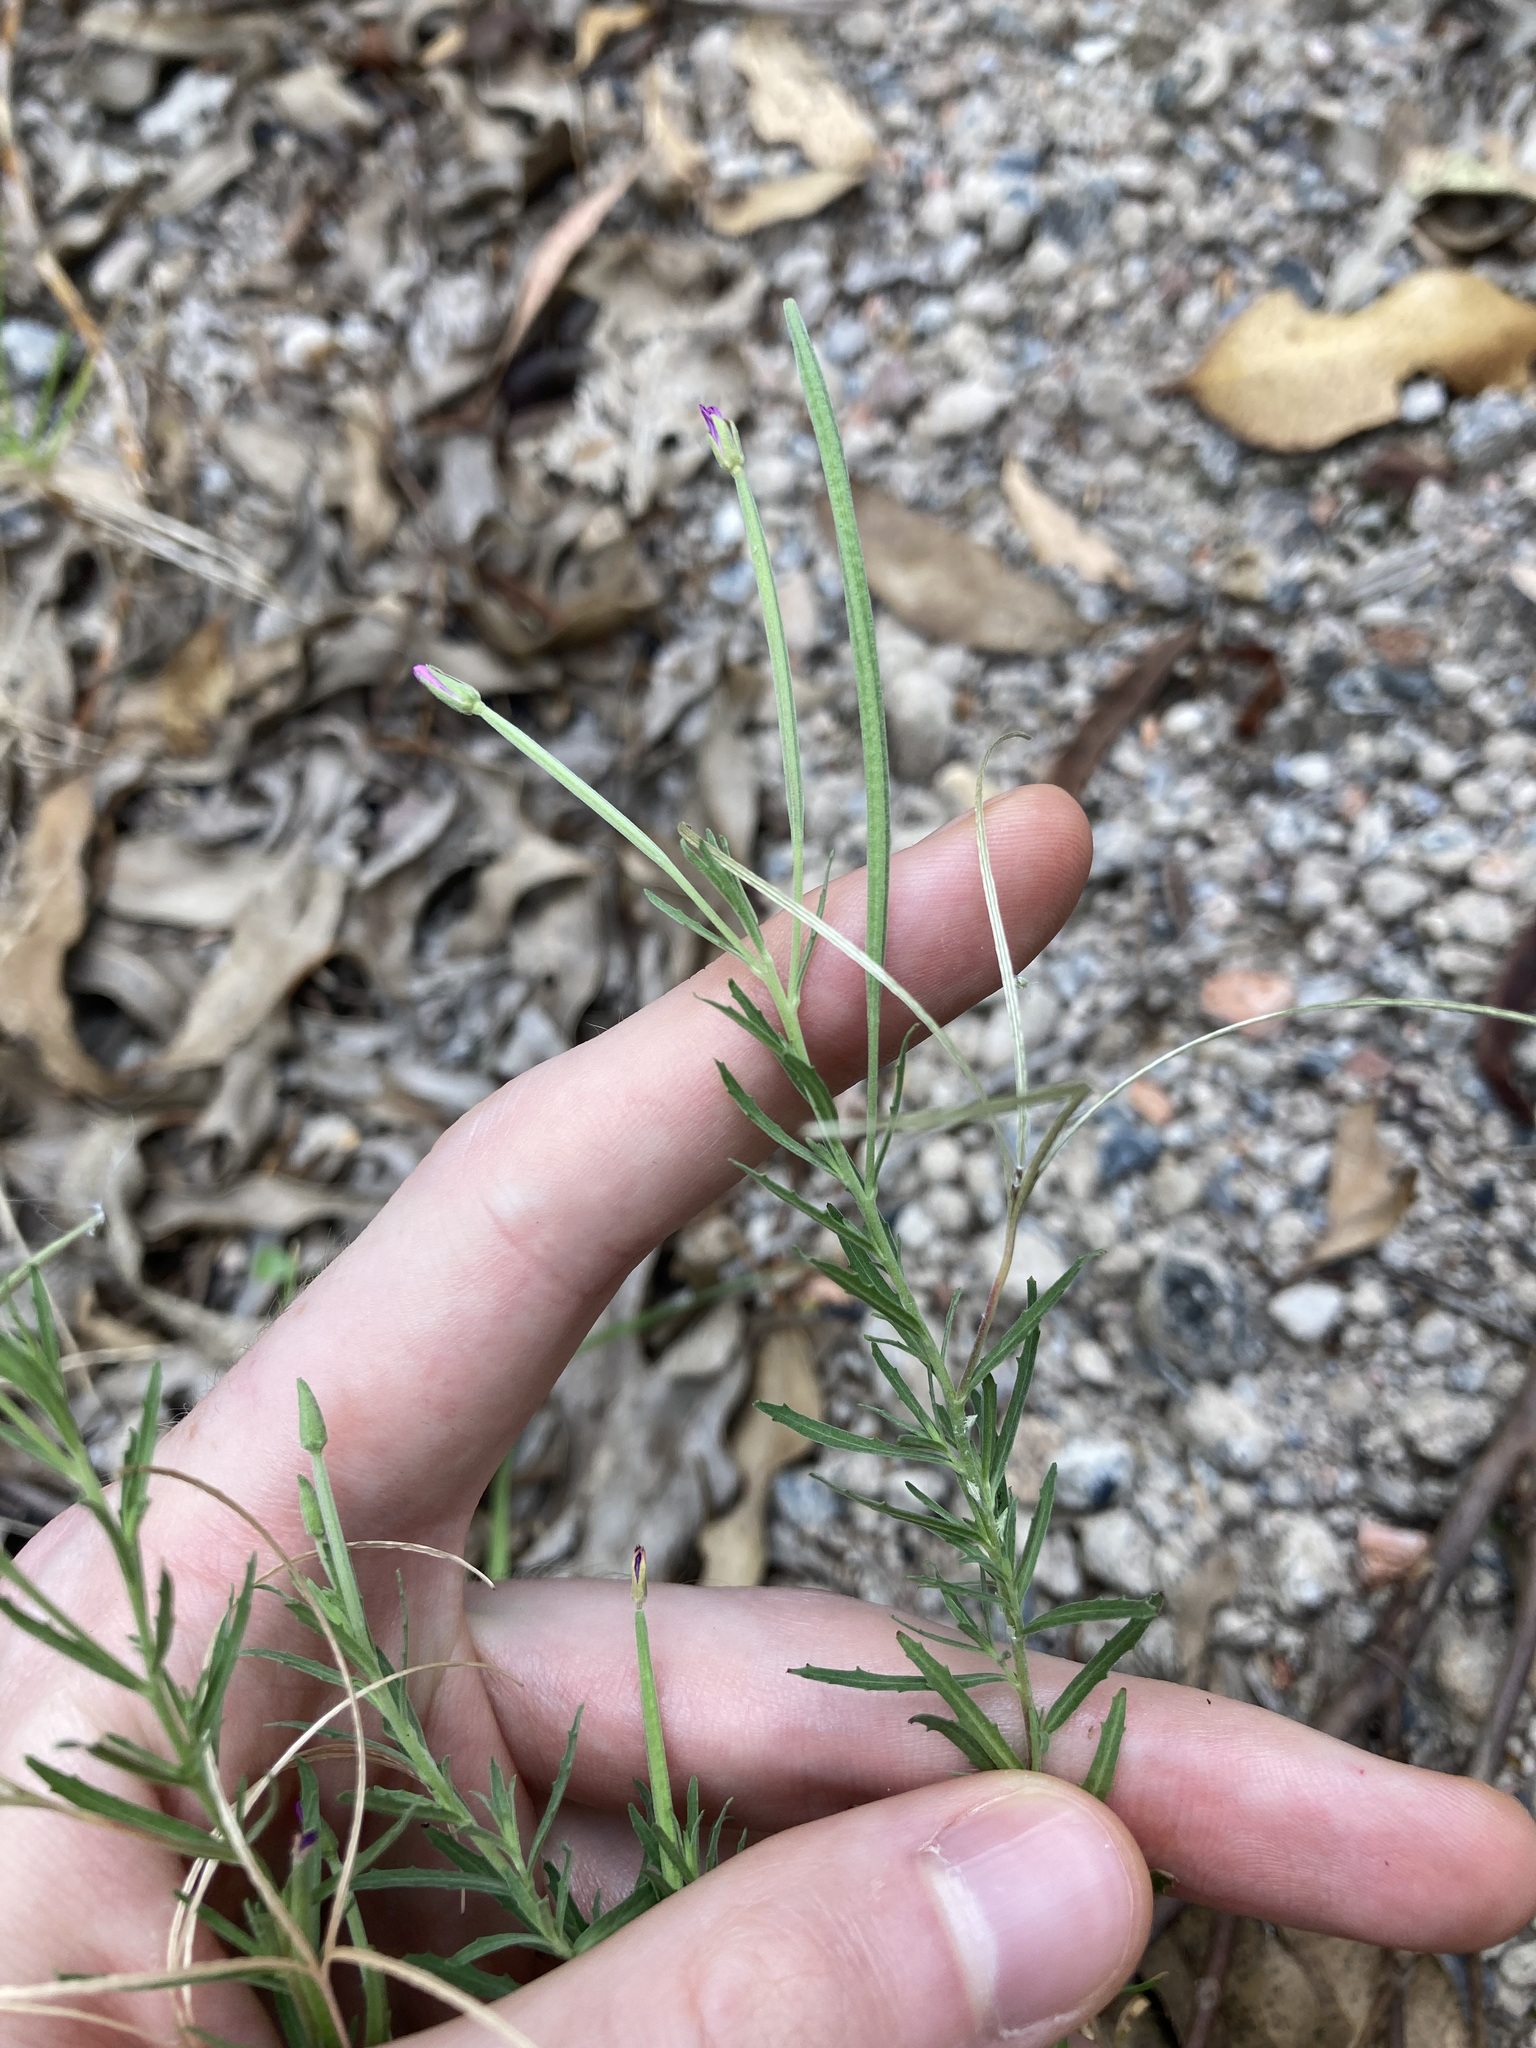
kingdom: Plantae
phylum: Tracheophyta
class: Magnoliopsida
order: Myrtales
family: Onagraceae
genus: Epilobium
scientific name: Epilobium billardierianum
